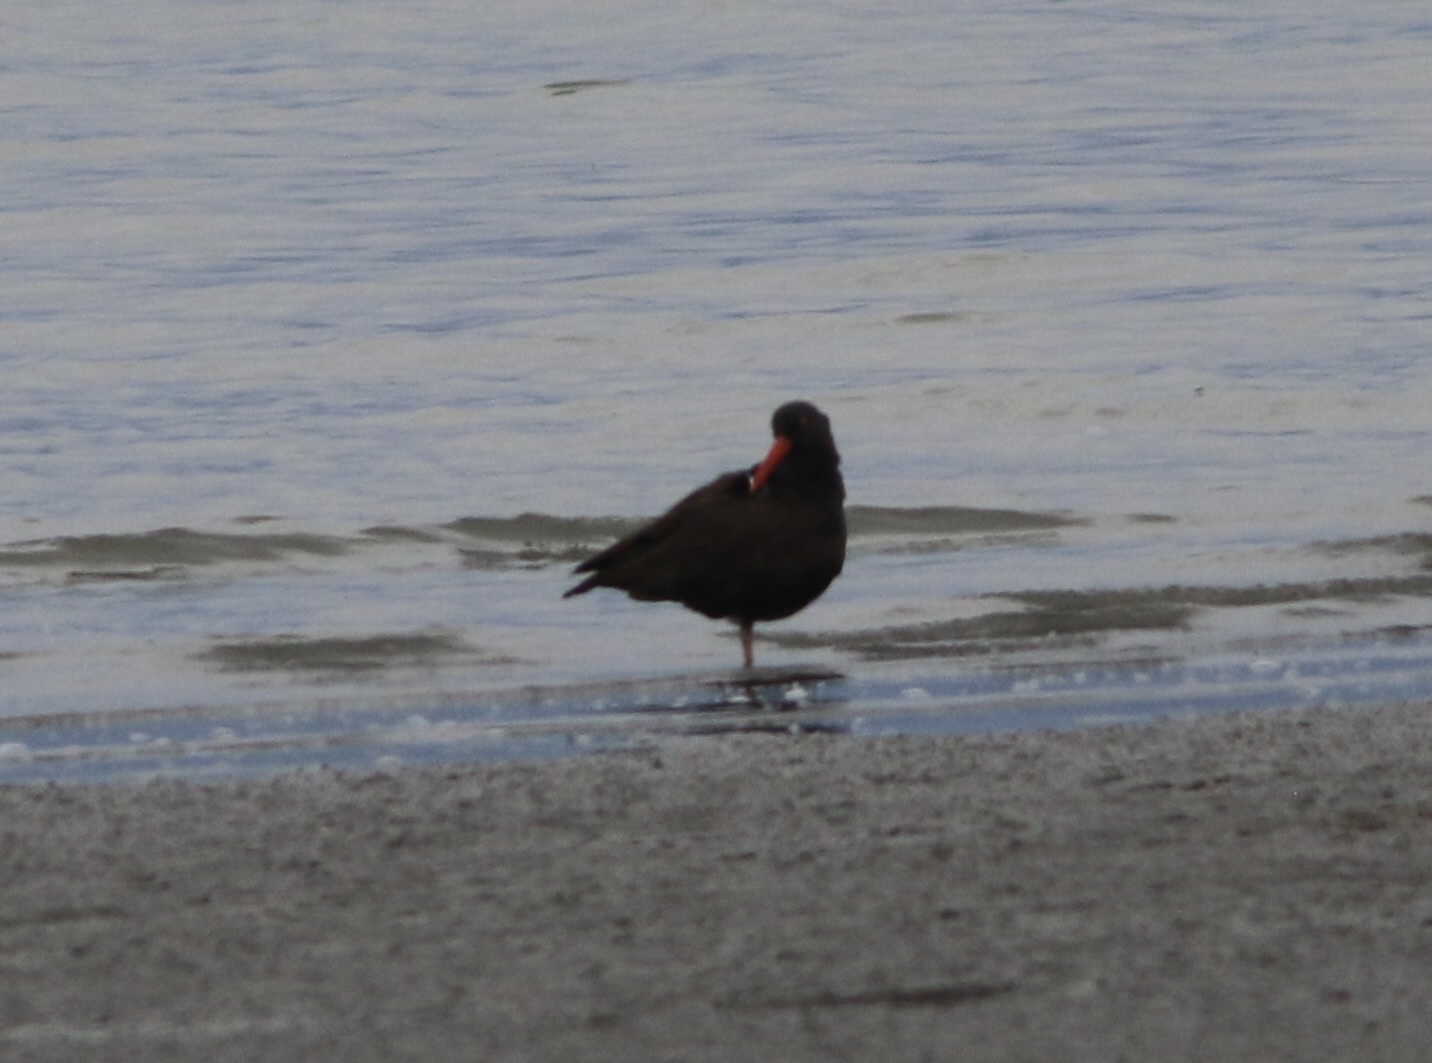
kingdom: Animalia
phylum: Chordata
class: Aves
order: Charadriiformes
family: Haematopodidae
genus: Haematopus
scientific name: Haematopus bachmani
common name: Black oystercatcher
